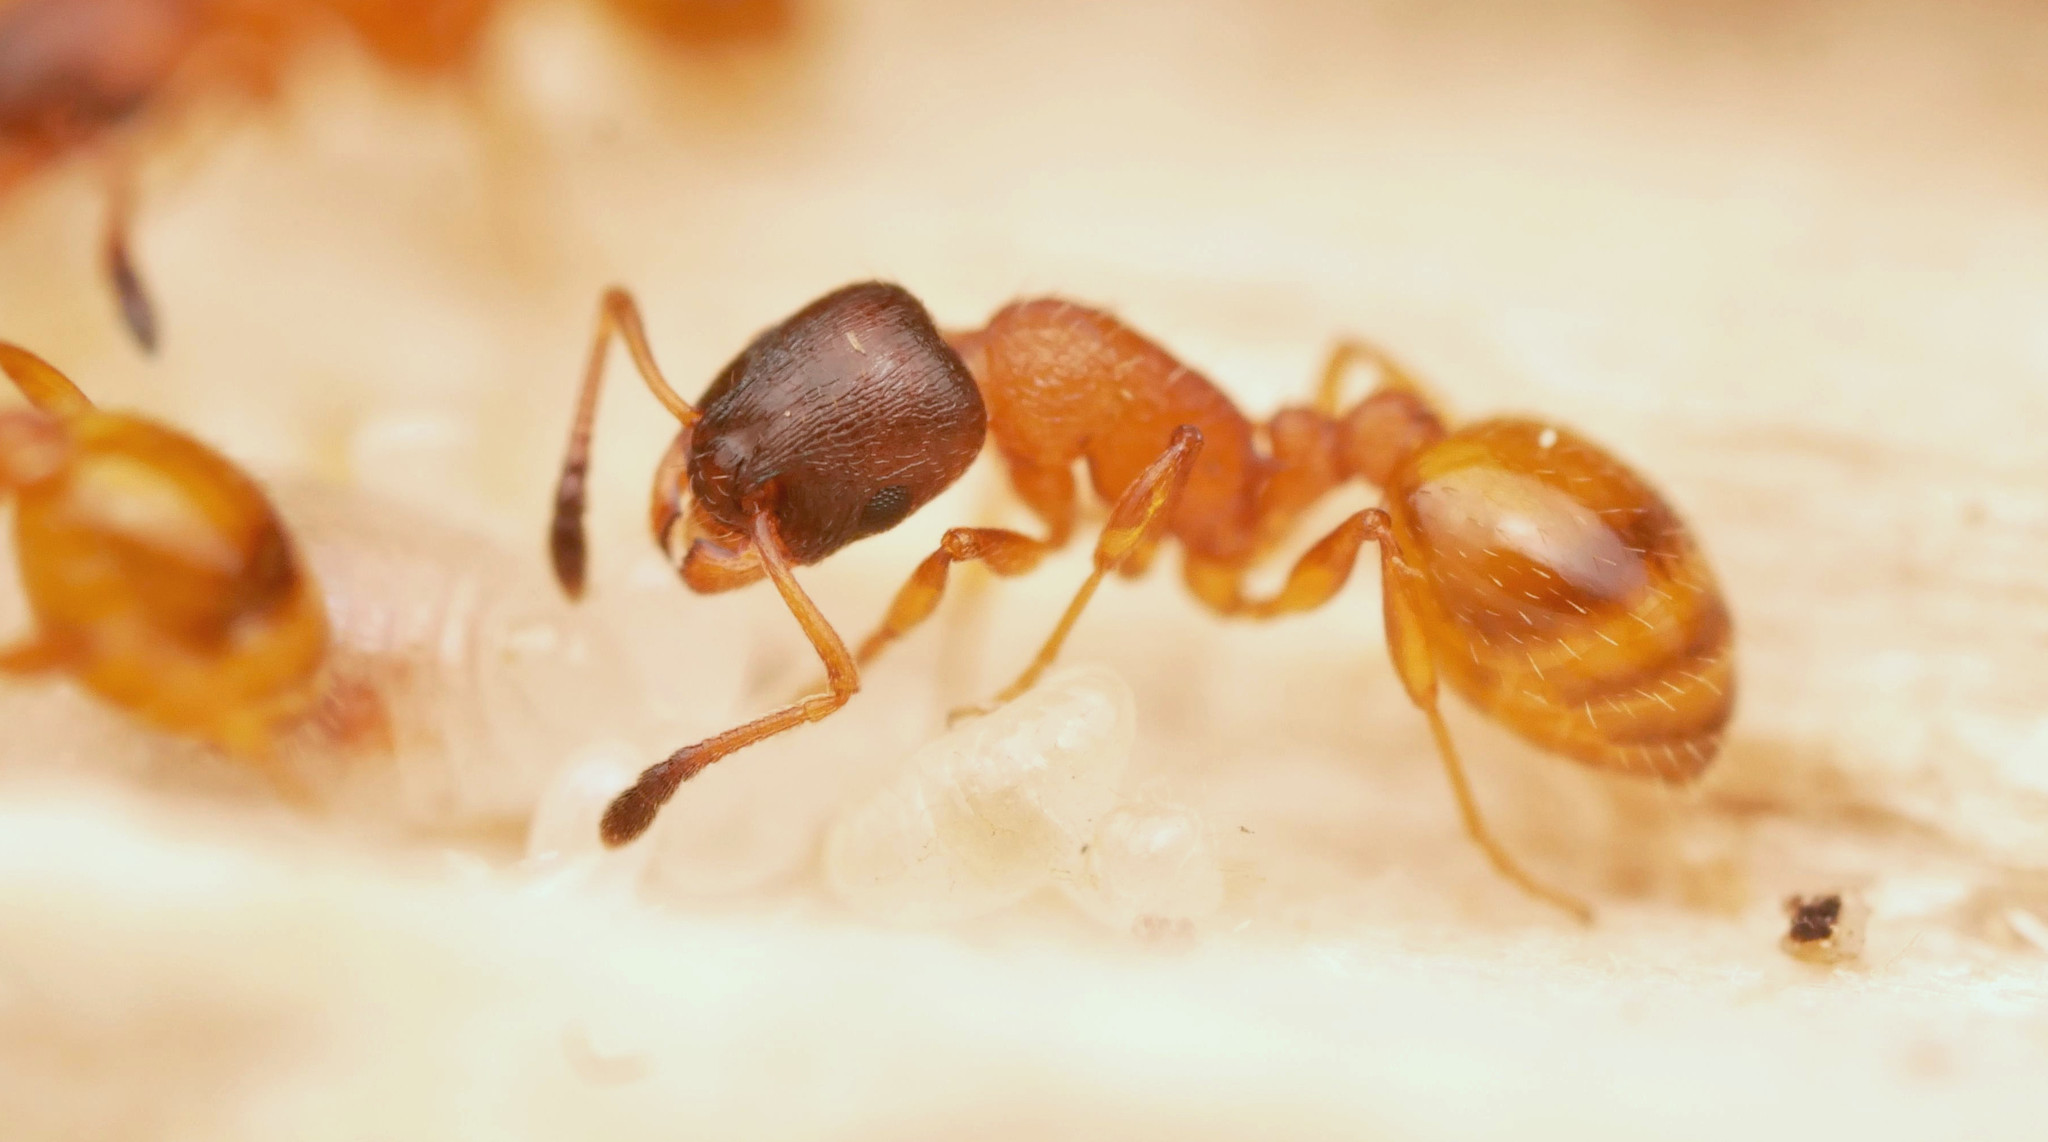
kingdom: Animalia
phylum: Arthropoda
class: Insecta
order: Hymenoptera
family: Formicidae
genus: Leptothorax
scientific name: Leptothorax tuberum
